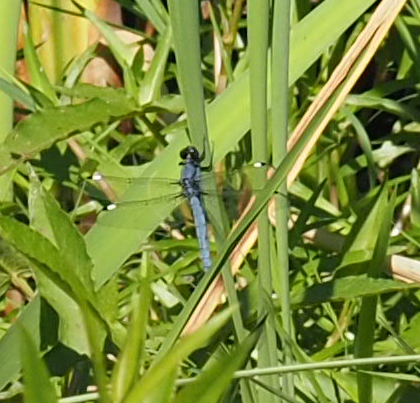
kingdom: Animalia
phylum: Arthropoda
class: Insecta
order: Odonata
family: Libellulidae
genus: Libellula
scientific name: Libellula cyanea
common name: Spangled skimmer
